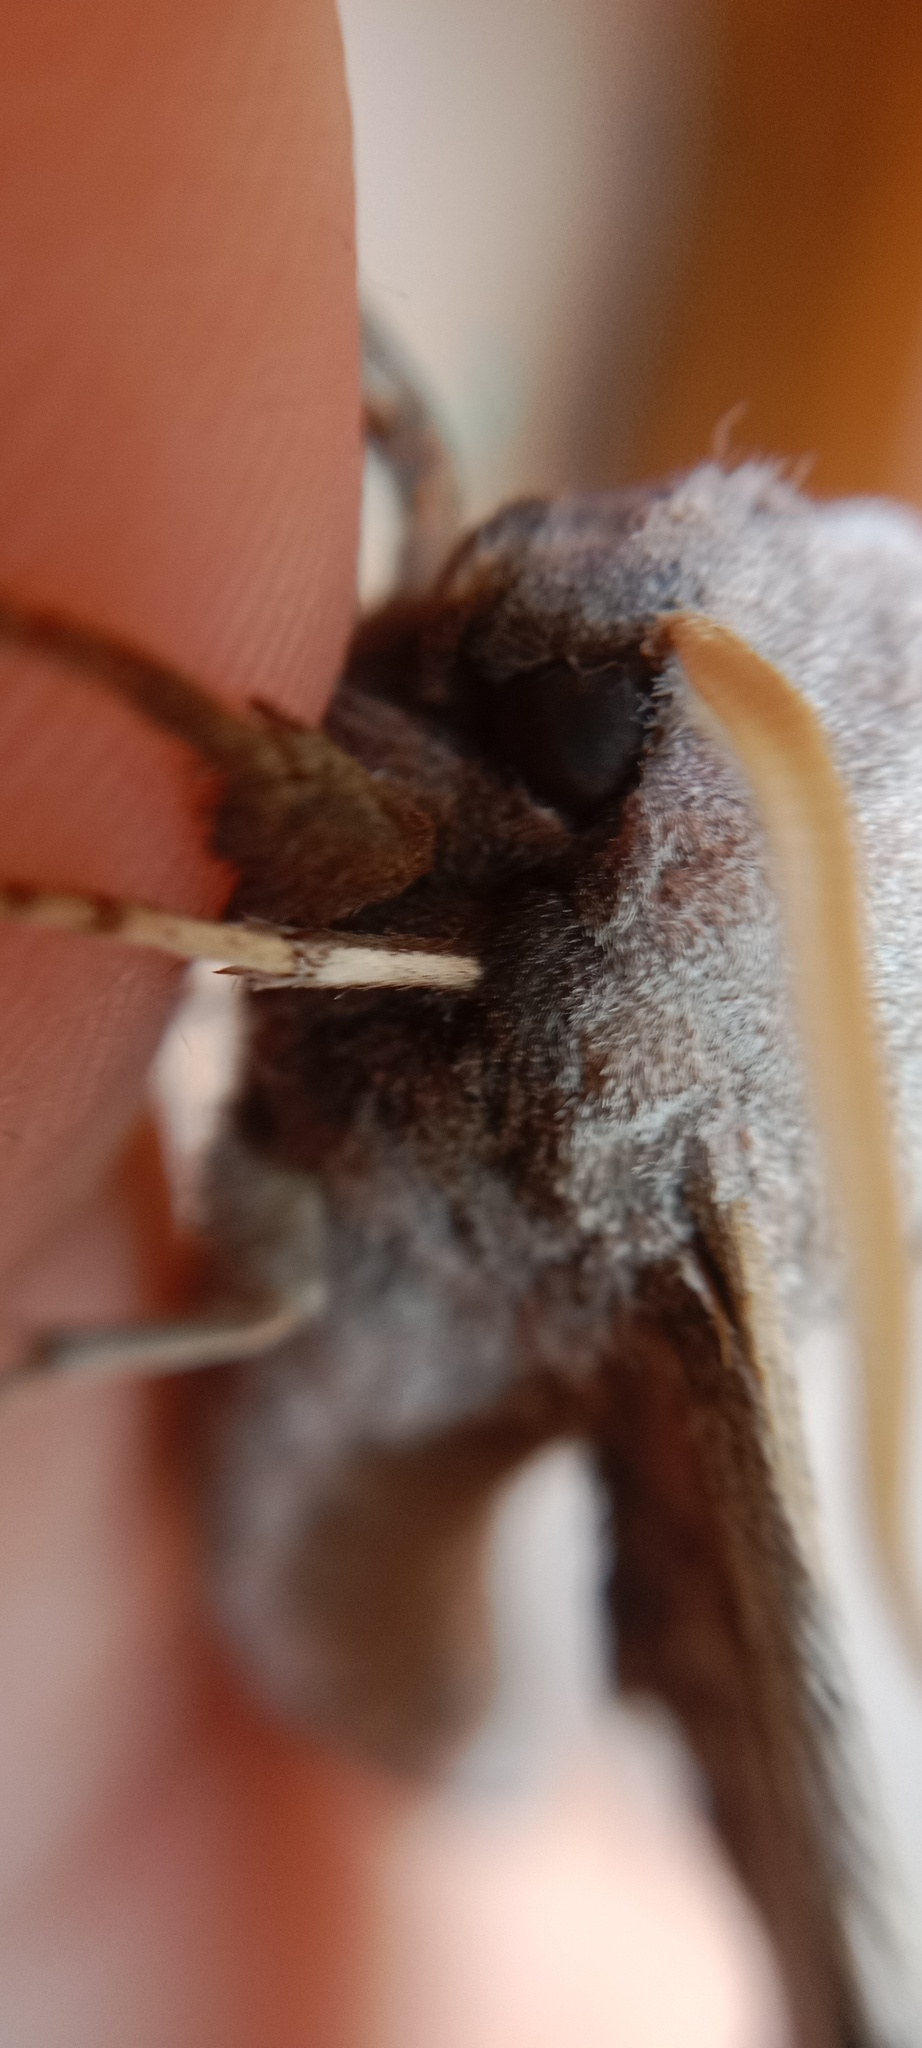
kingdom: Animalia
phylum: Arthropoda
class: Insecta
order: Lepidoptera
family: Sphingidae
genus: Smerinthus
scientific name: Smerinthus ocellata
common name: Eyed hawk-moth
